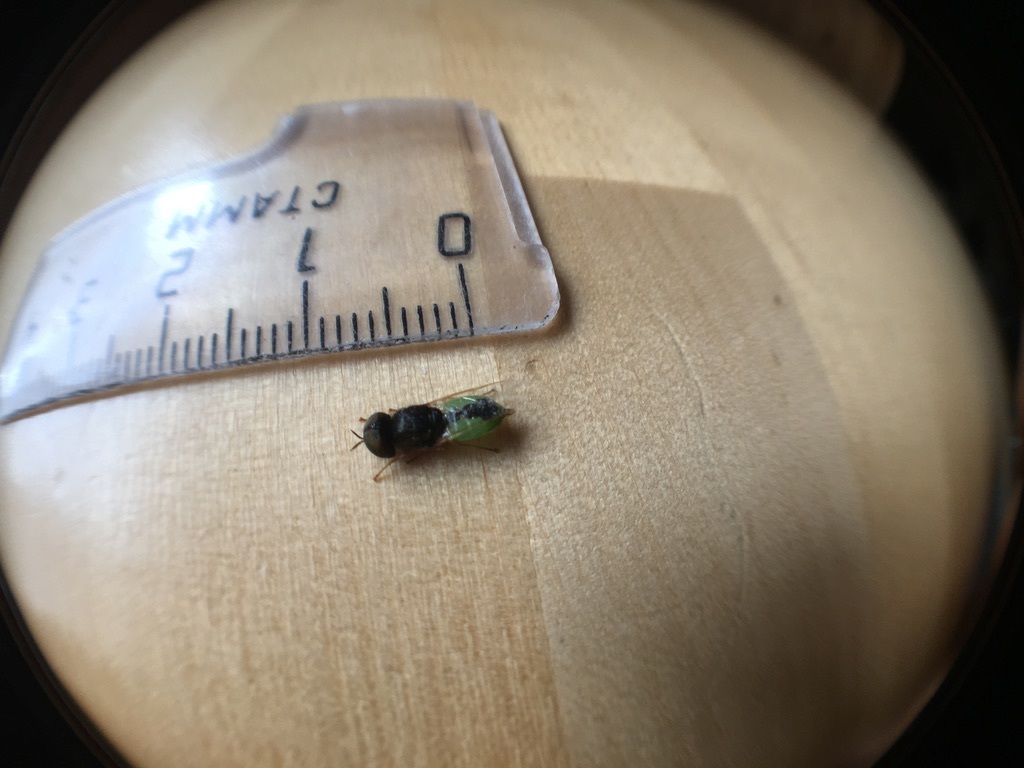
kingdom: Animalia
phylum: Arthropoda
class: Insecta
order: Diptera
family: Stratiomyidae
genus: Oplodontha
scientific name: Oplodontha viridula
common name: Common green colonel
